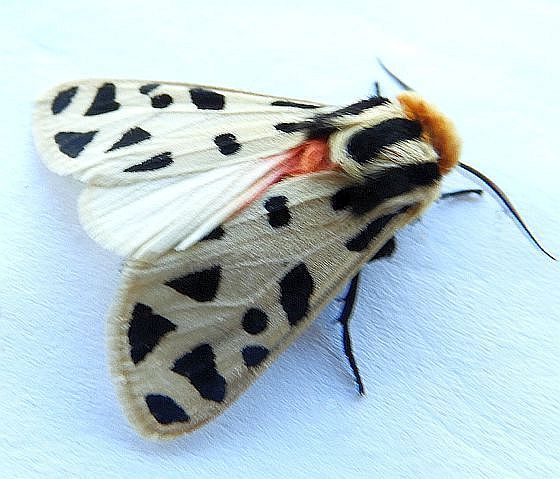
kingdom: Animalia
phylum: Arthropoda
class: Insecta
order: Lepidoptera
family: Erebidae
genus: Apantesis
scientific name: Apantesis
